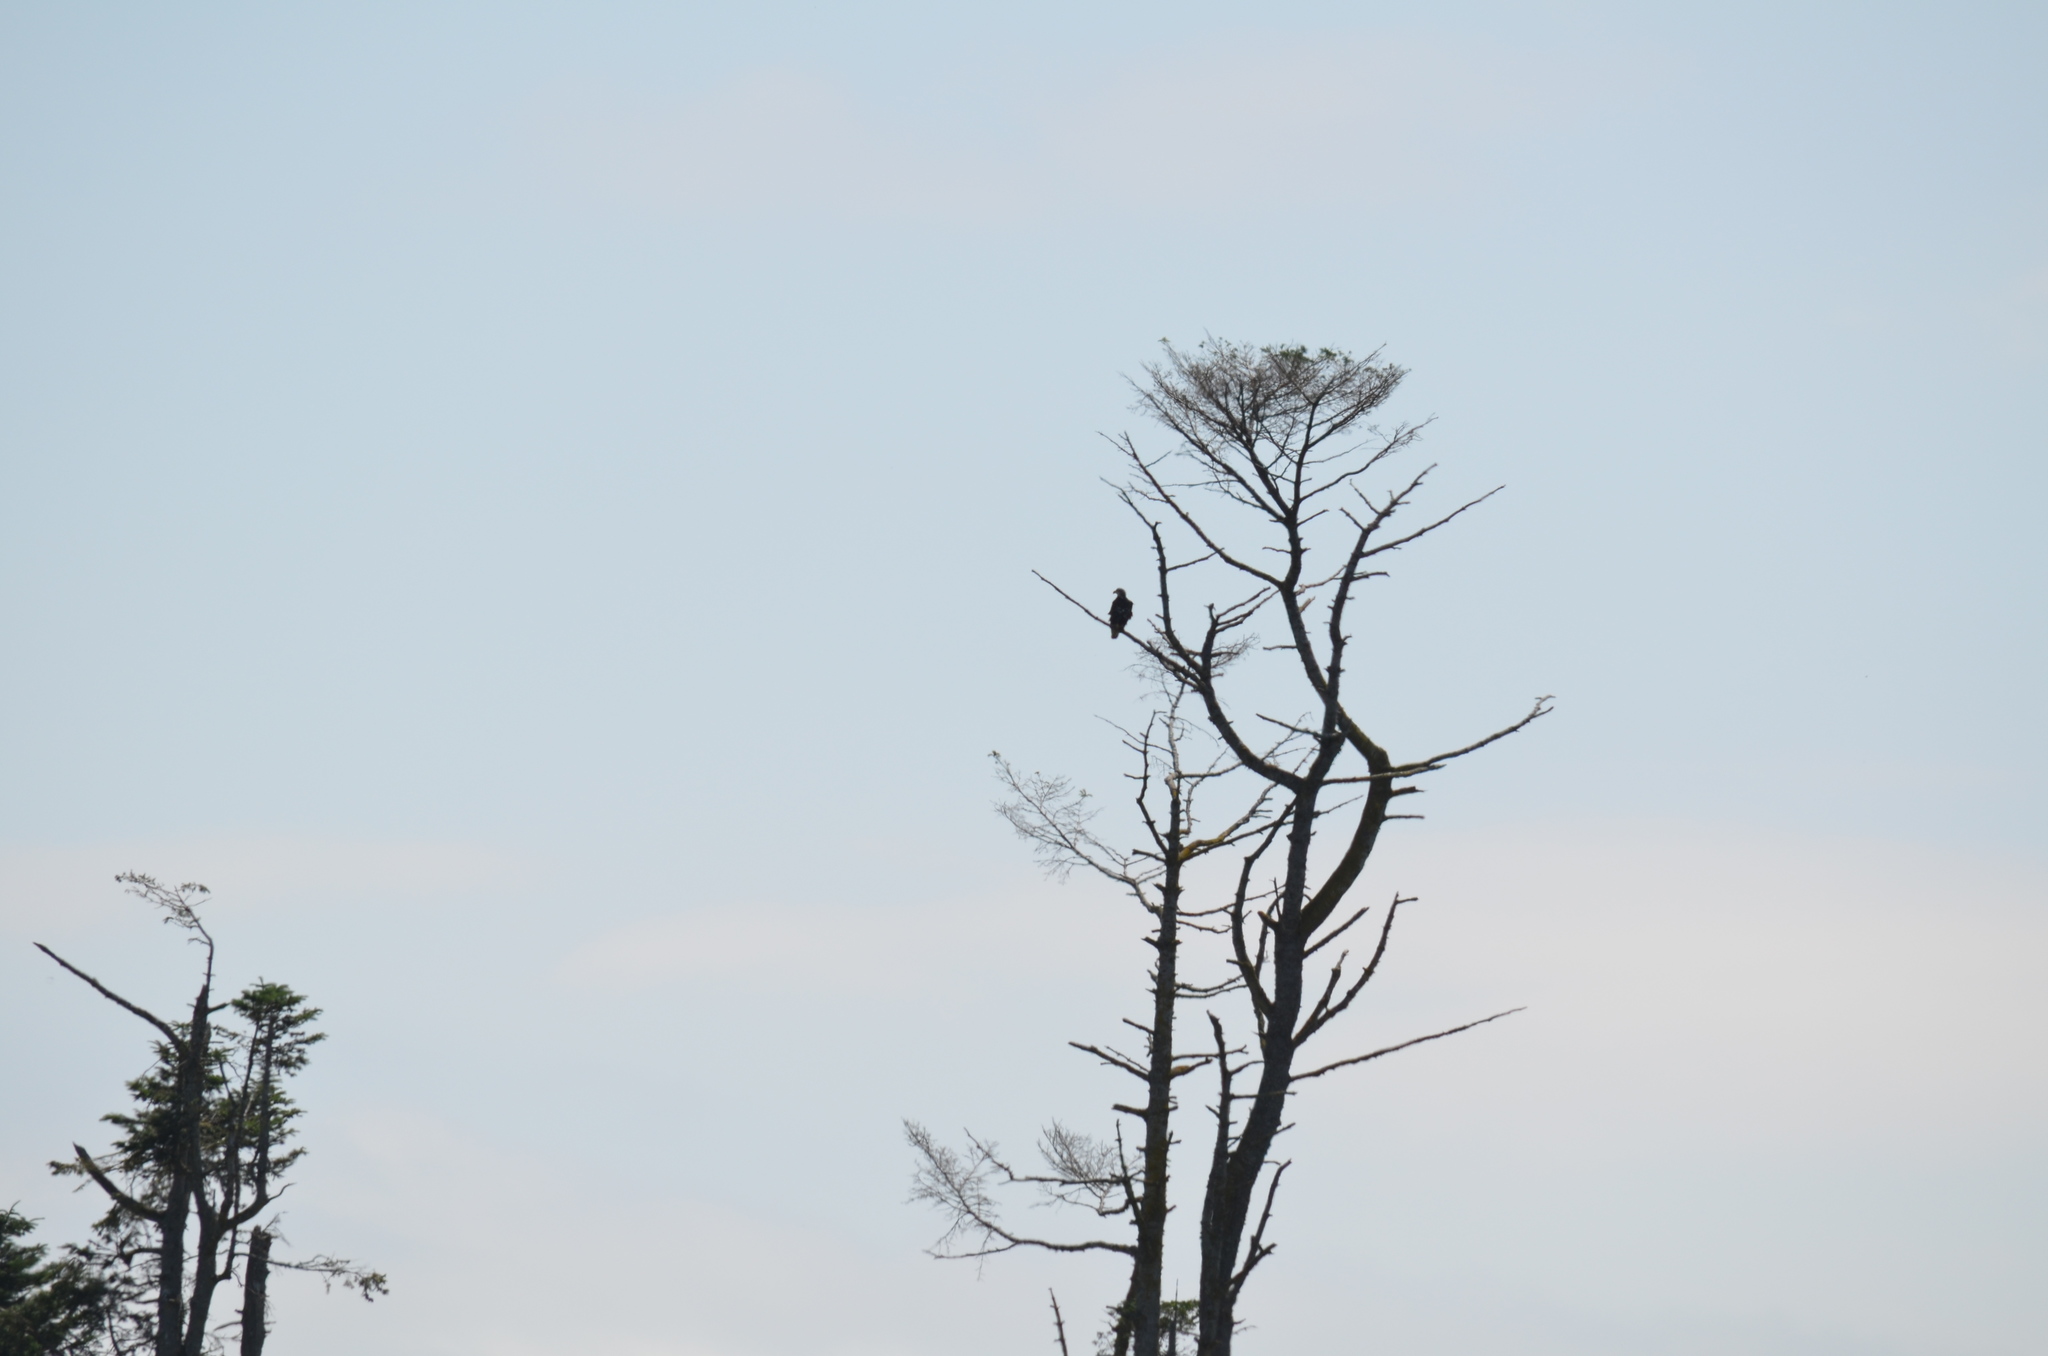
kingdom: Animalia
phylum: Chordata
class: Aves
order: Accipitriformes
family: Accipitridae
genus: Haliaeetus
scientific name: Haliaeetus leucocephalus
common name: Bald eagle
